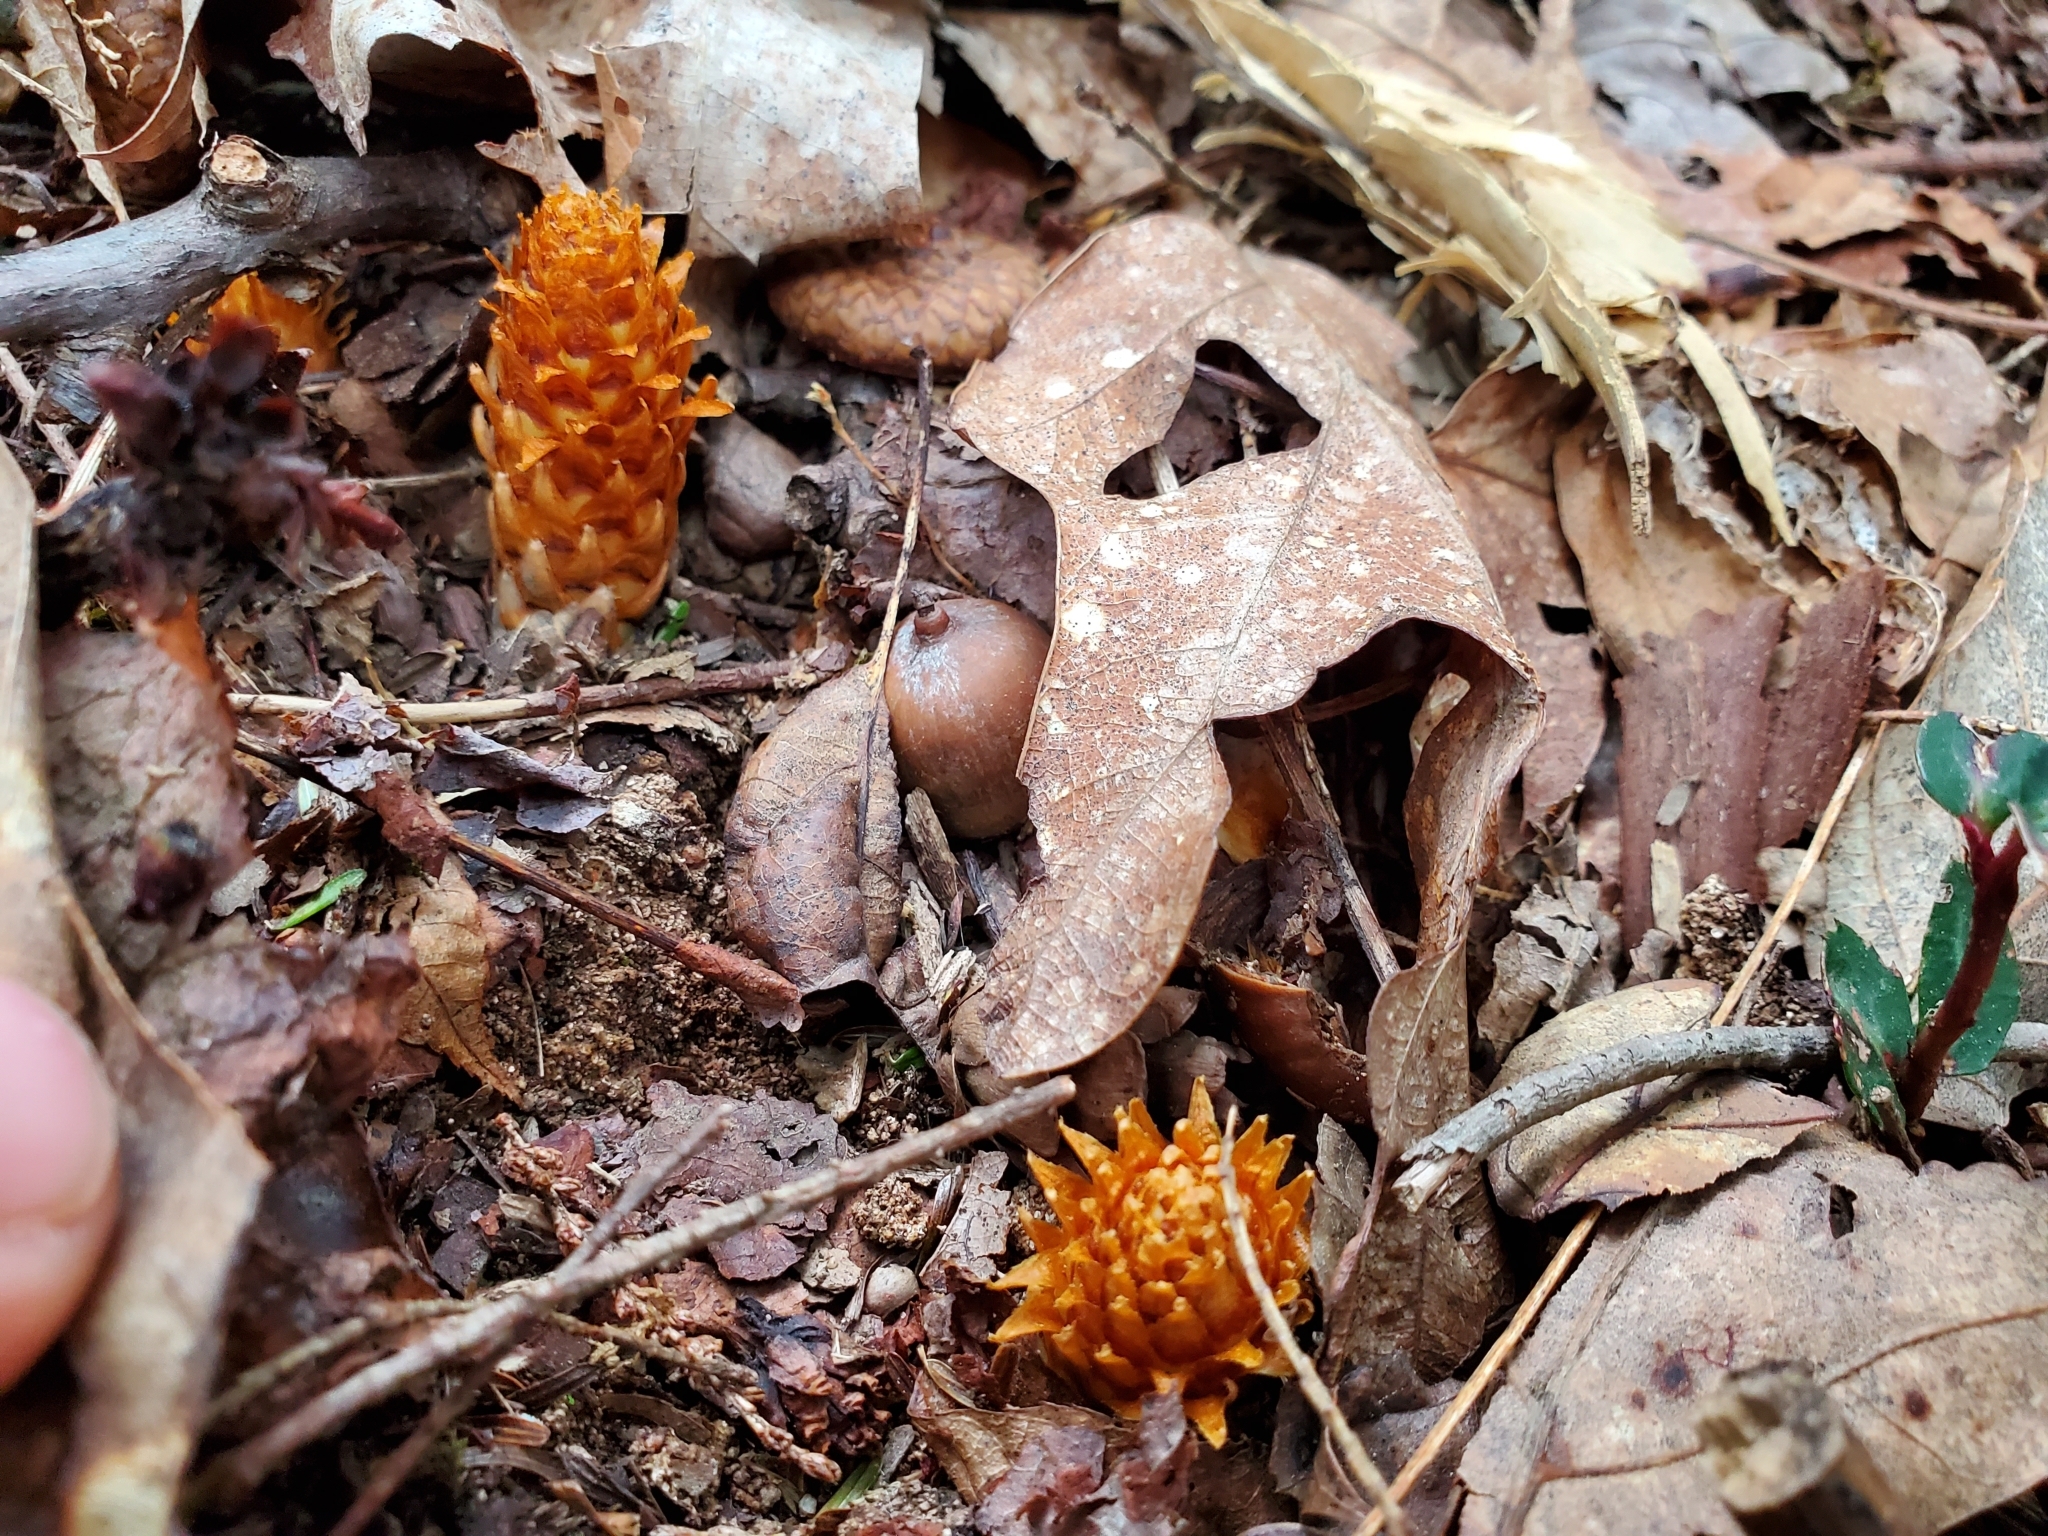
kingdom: Plantae
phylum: Tracheophyta
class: Magnoliopsida
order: Lamiales
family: Orobanchaceae
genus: Conopholis
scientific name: Conopholis americana
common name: American cancer-root
